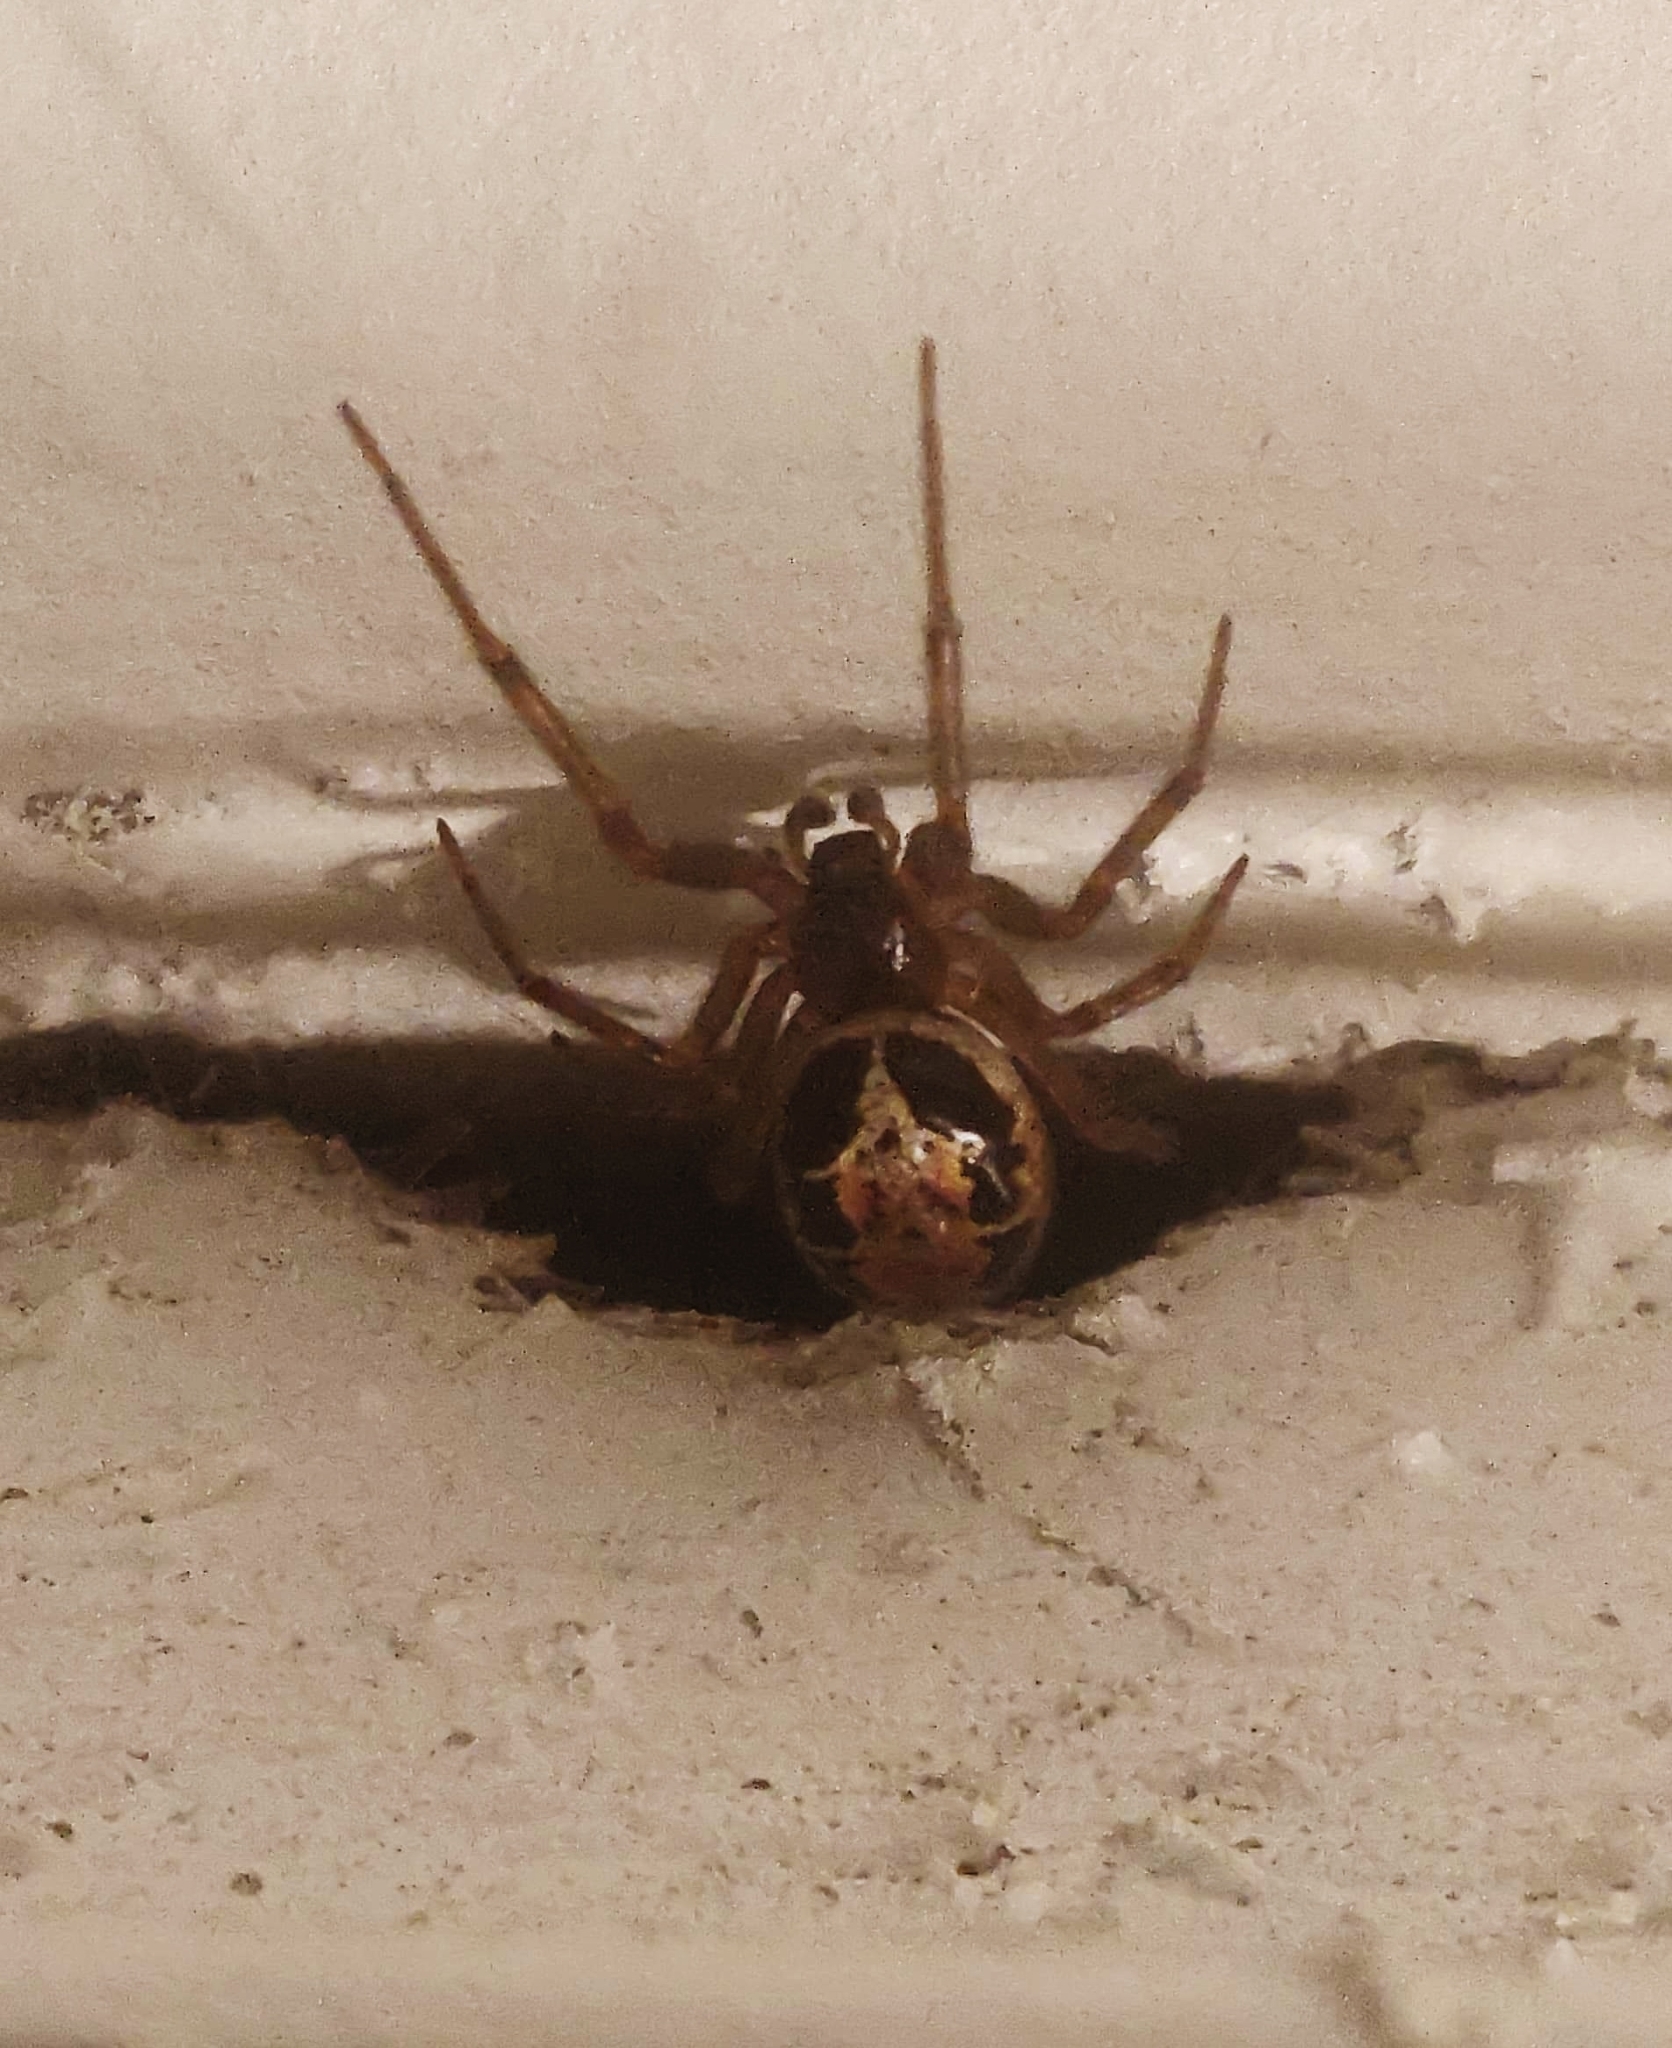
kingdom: Animalia
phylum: Arthropoda
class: Arachnida
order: Araneae
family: Theridiidae
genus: Steatoda
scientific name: Steatoda nobilis
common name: Cobweb weaver
